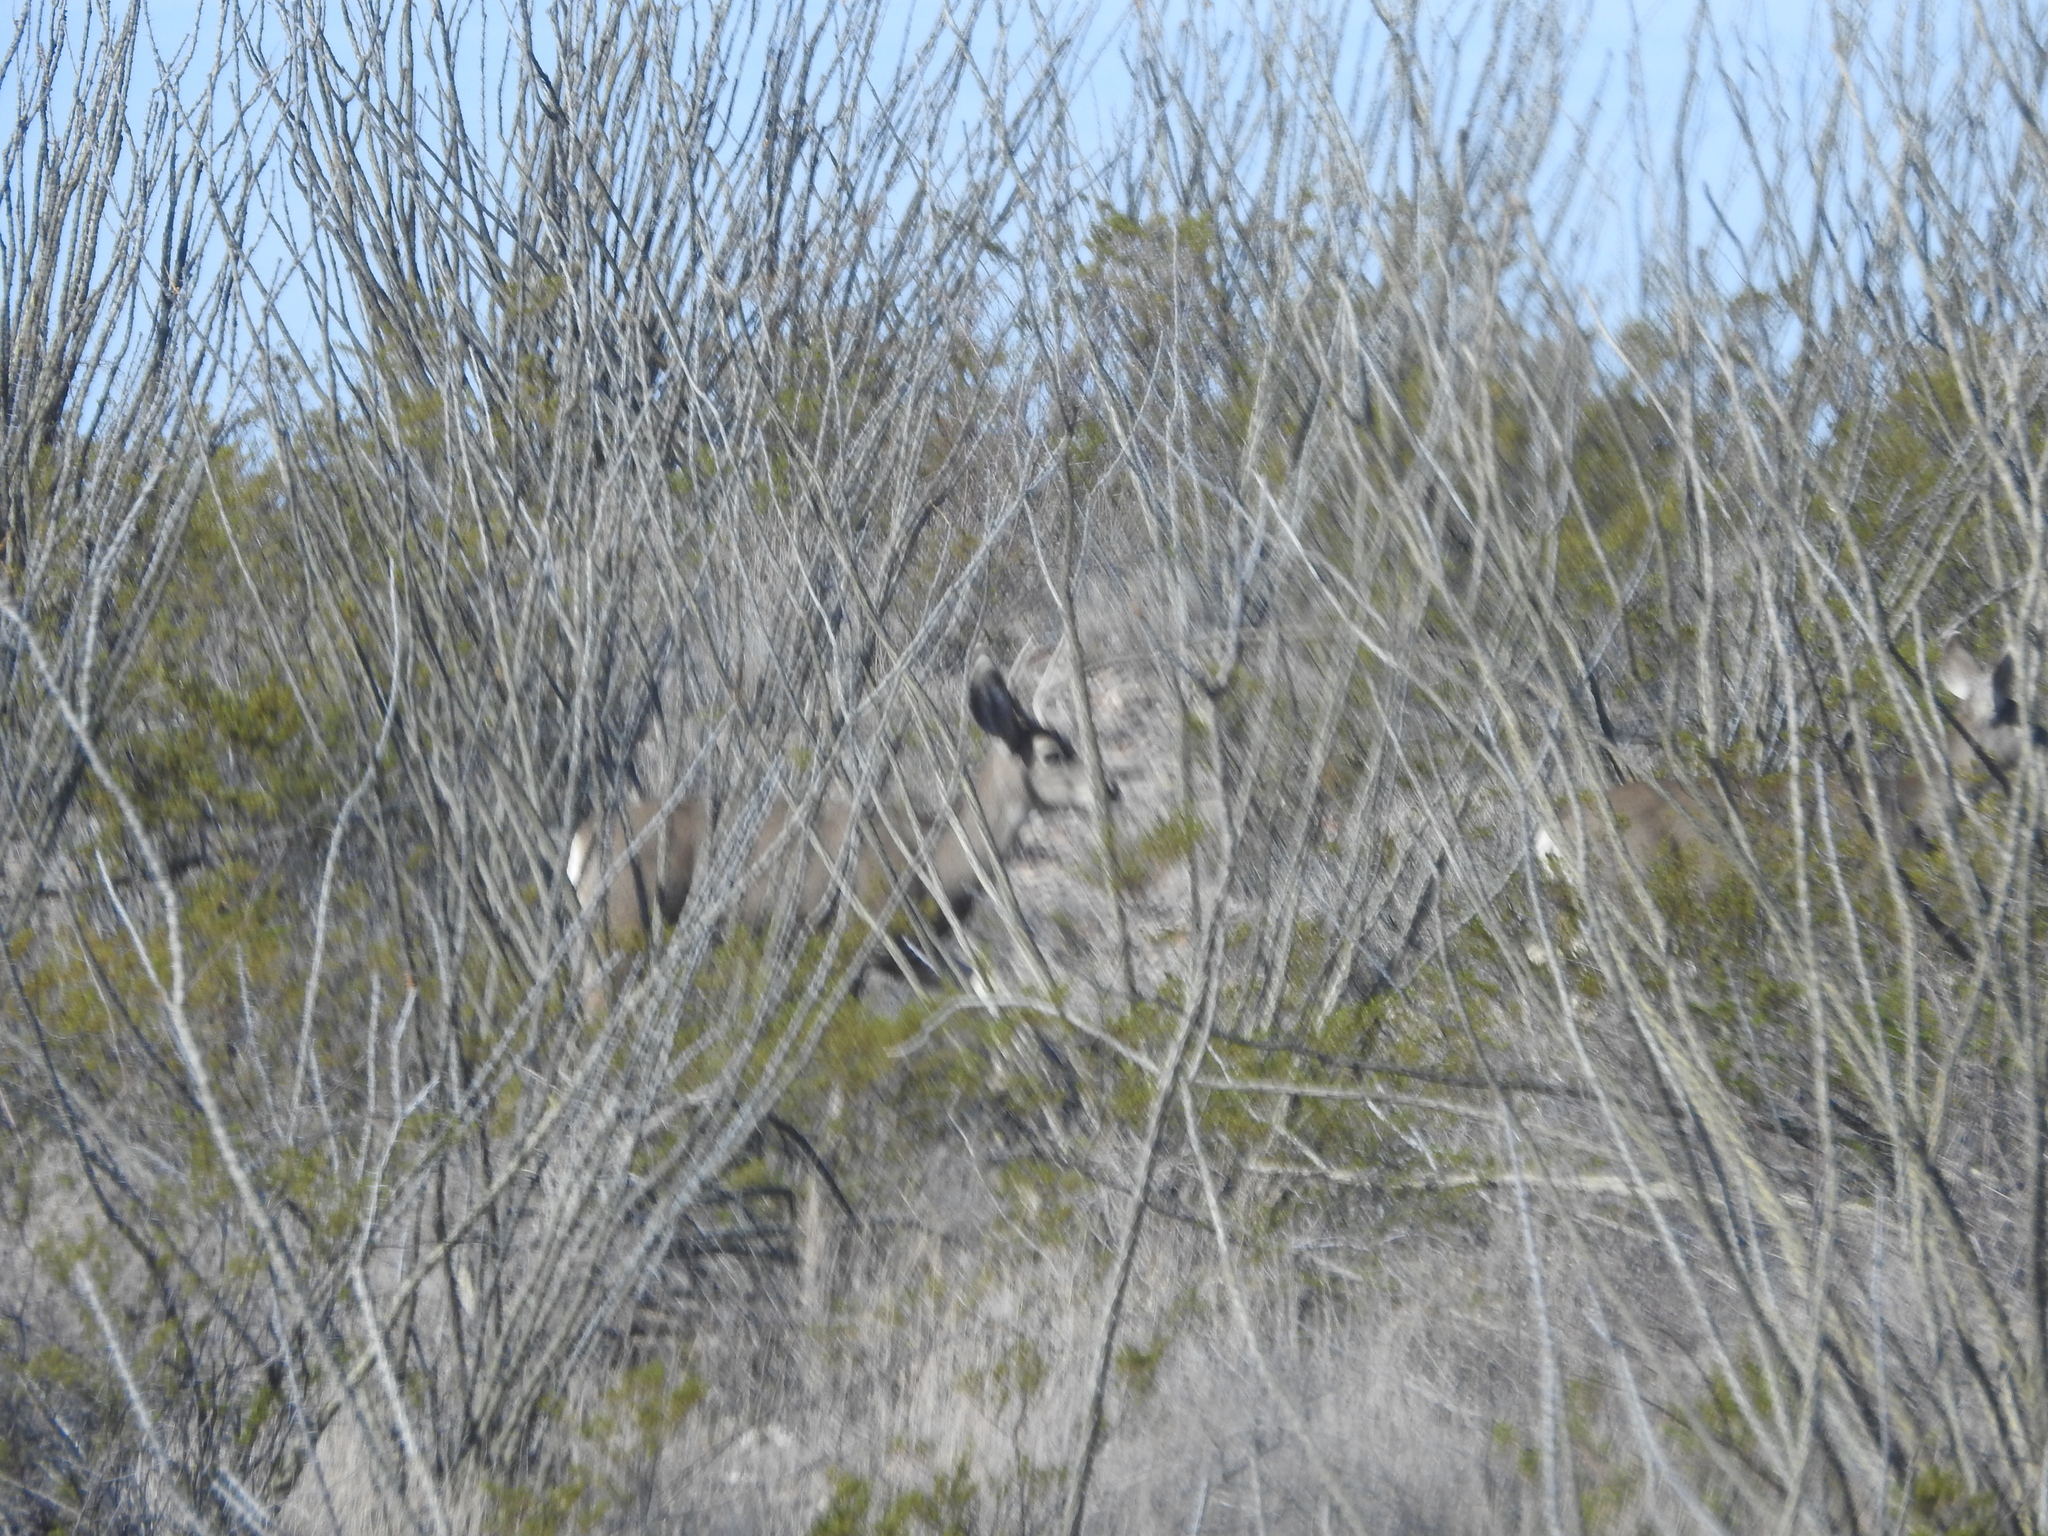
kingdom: Animalia
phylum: Chordata
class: Mammalia
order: Artiodactyla
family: Cervidae
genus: Odocoileus
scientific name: Odocoileus hemionus
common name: Mule deer
